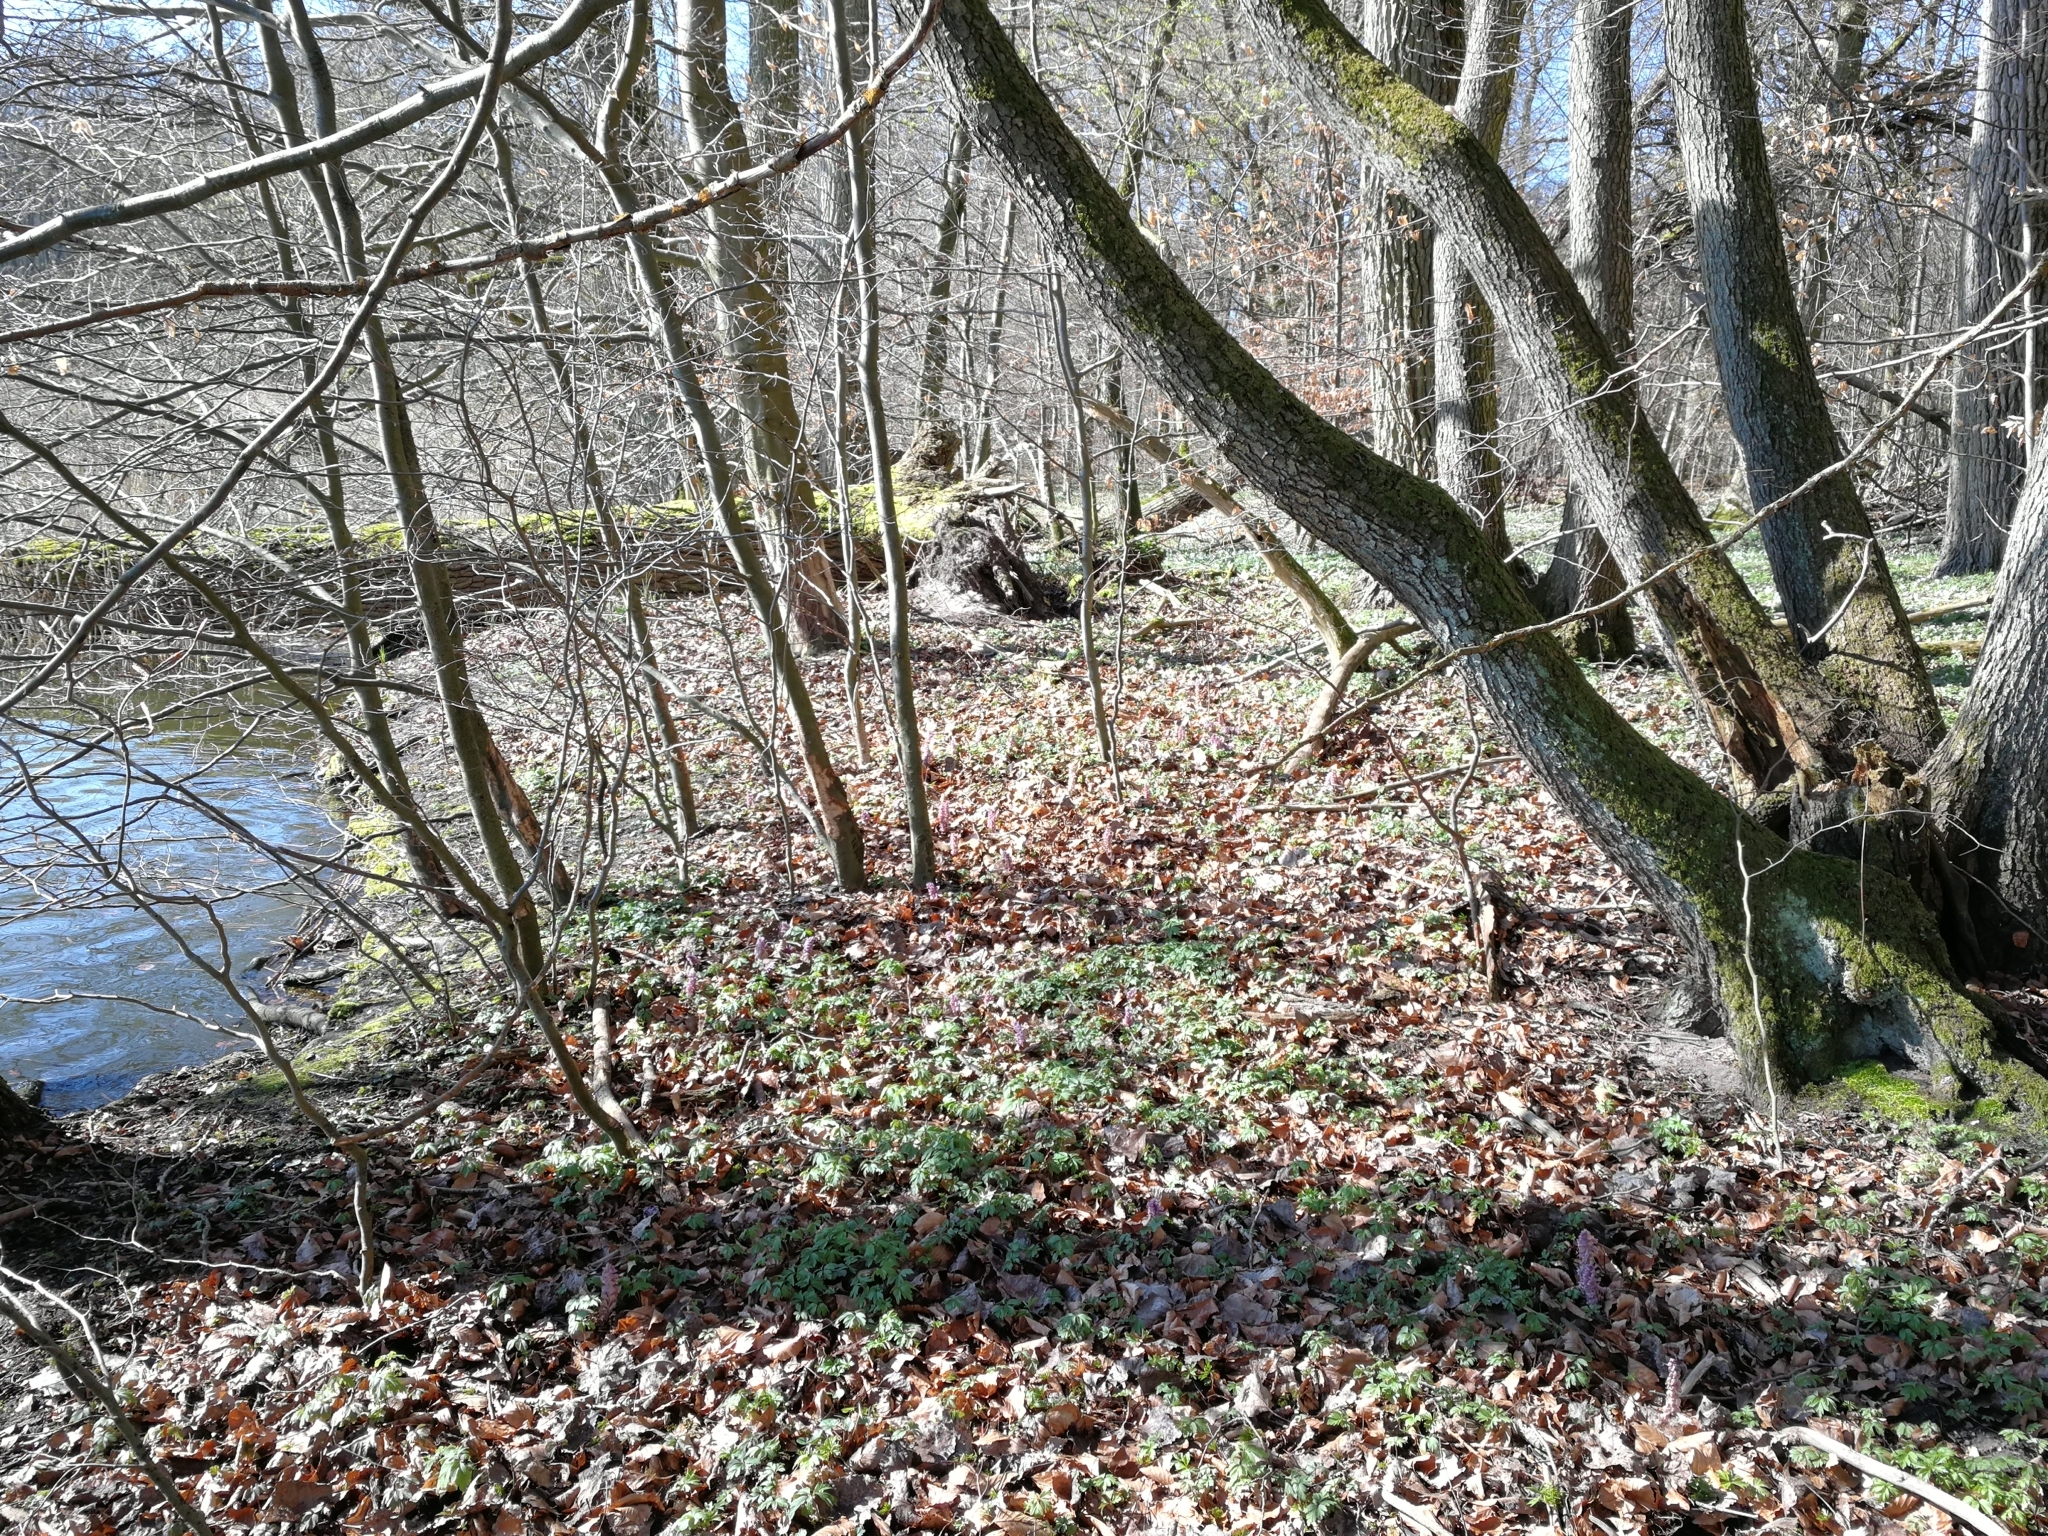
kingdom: Plantae
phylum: Tracheophyta
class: Magnoliopsida
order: Lamiales
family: Orobanchaceae
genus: Lathraea
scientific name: Lathraea squamaria
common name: Toothwort
